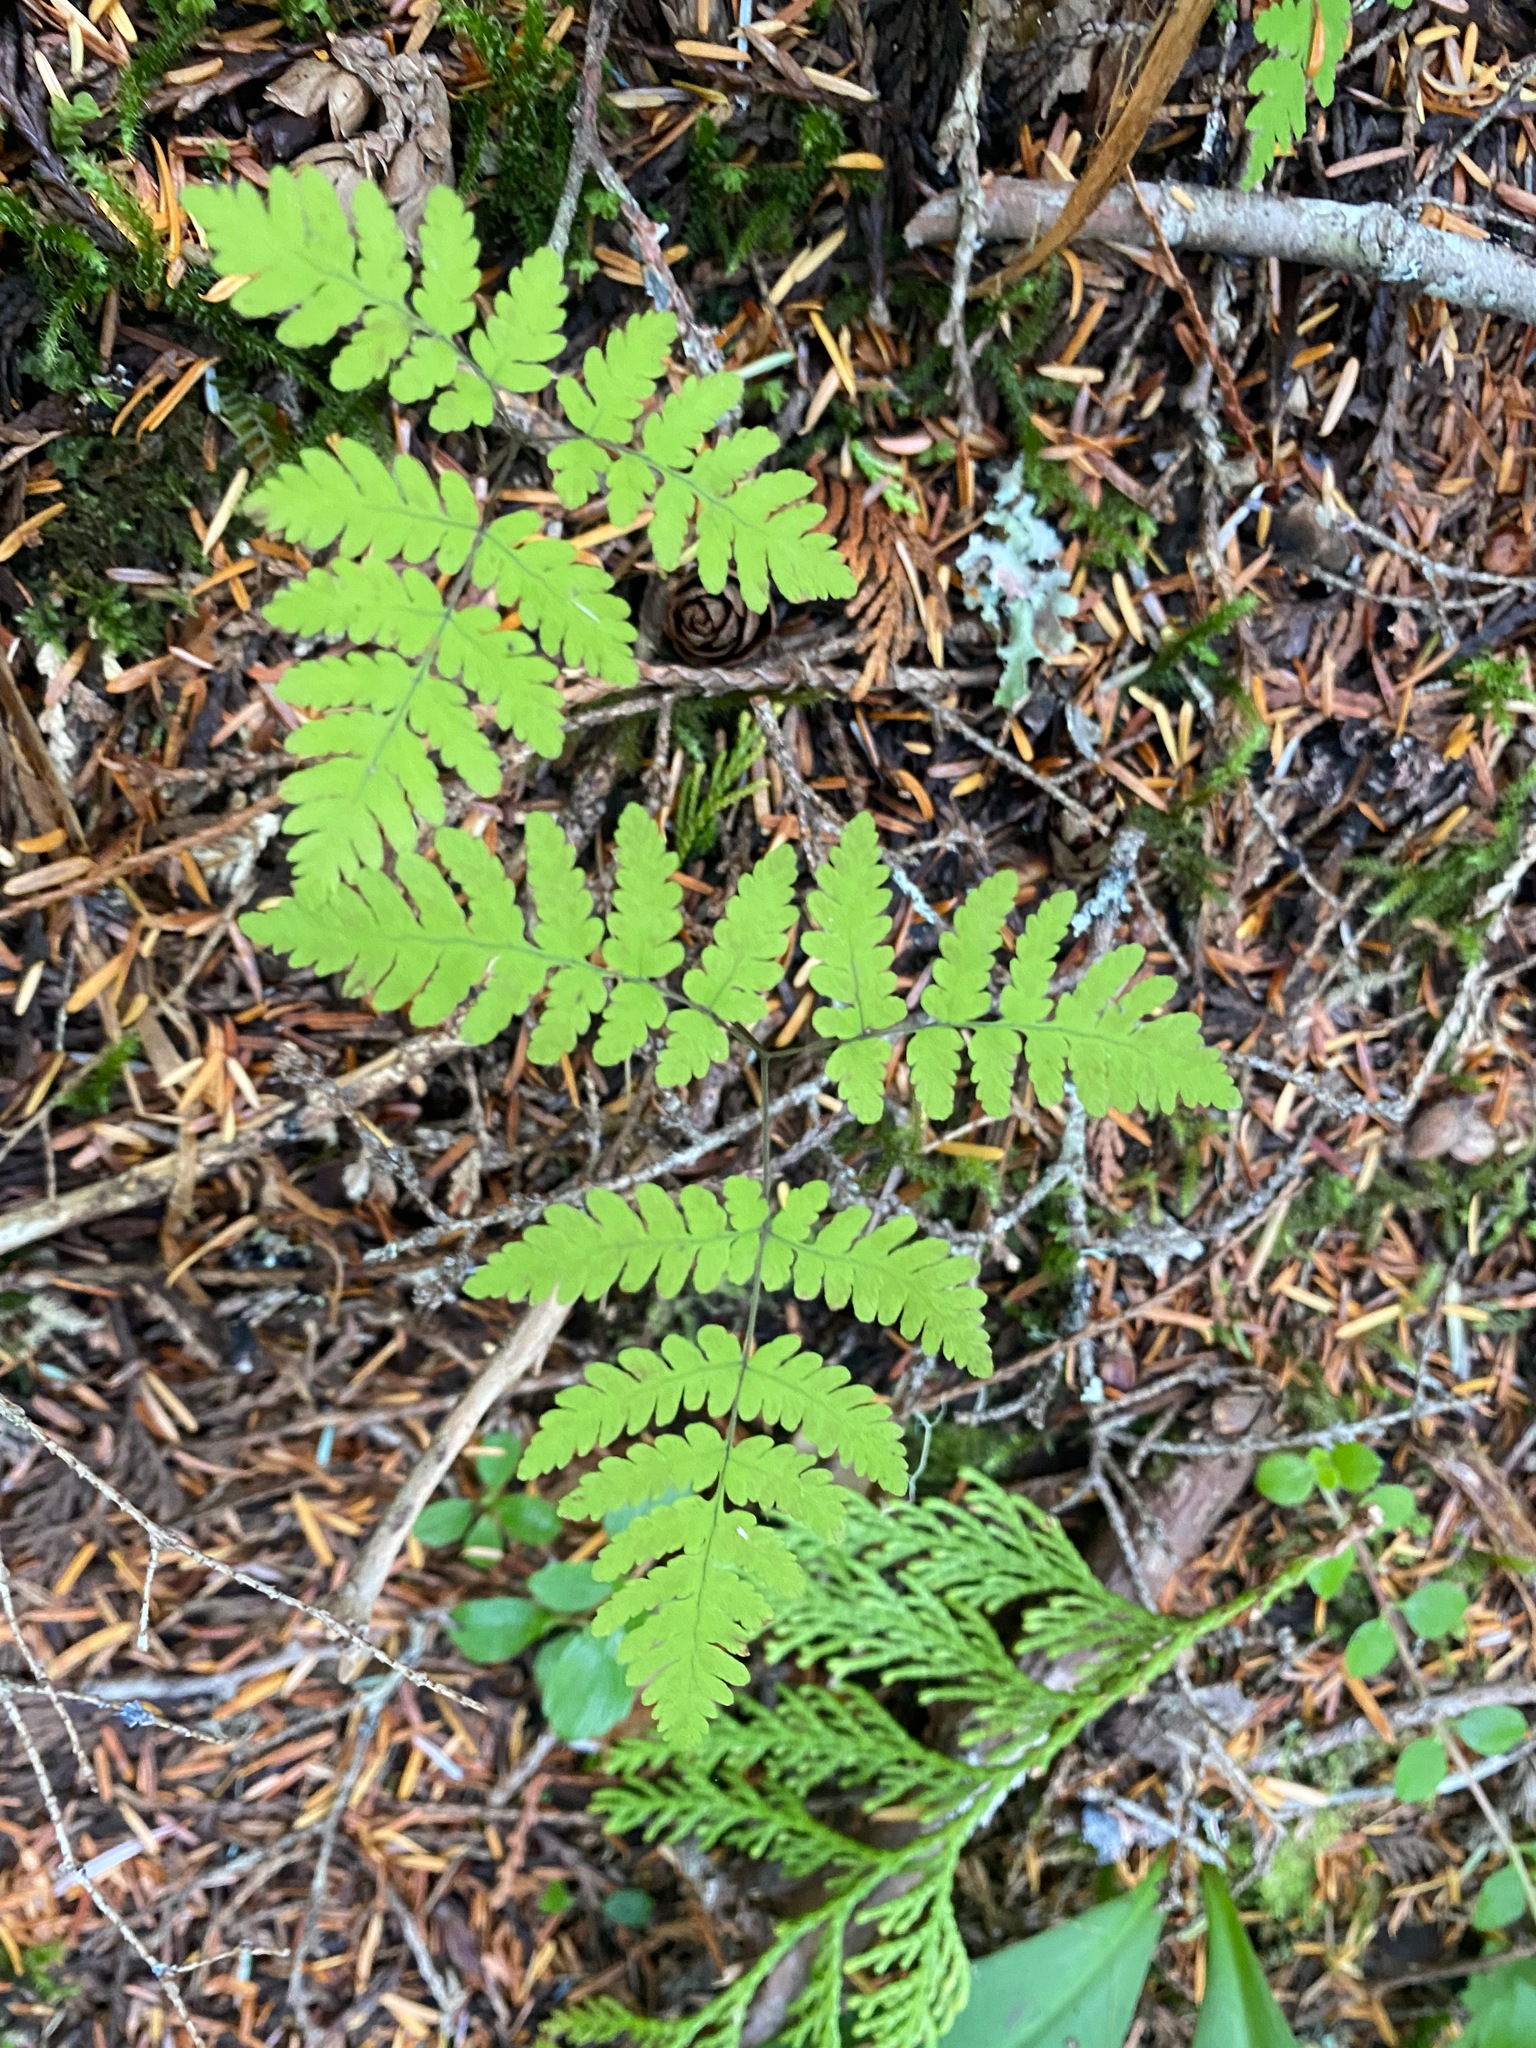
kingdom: Plantae
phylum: Tracheophyta
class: Polypodiopsida
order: Polypodiales
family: Cystopteridaceae
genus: Gymnocarpium
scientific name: Gymnocarpium dryopteris
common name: Oak fern
